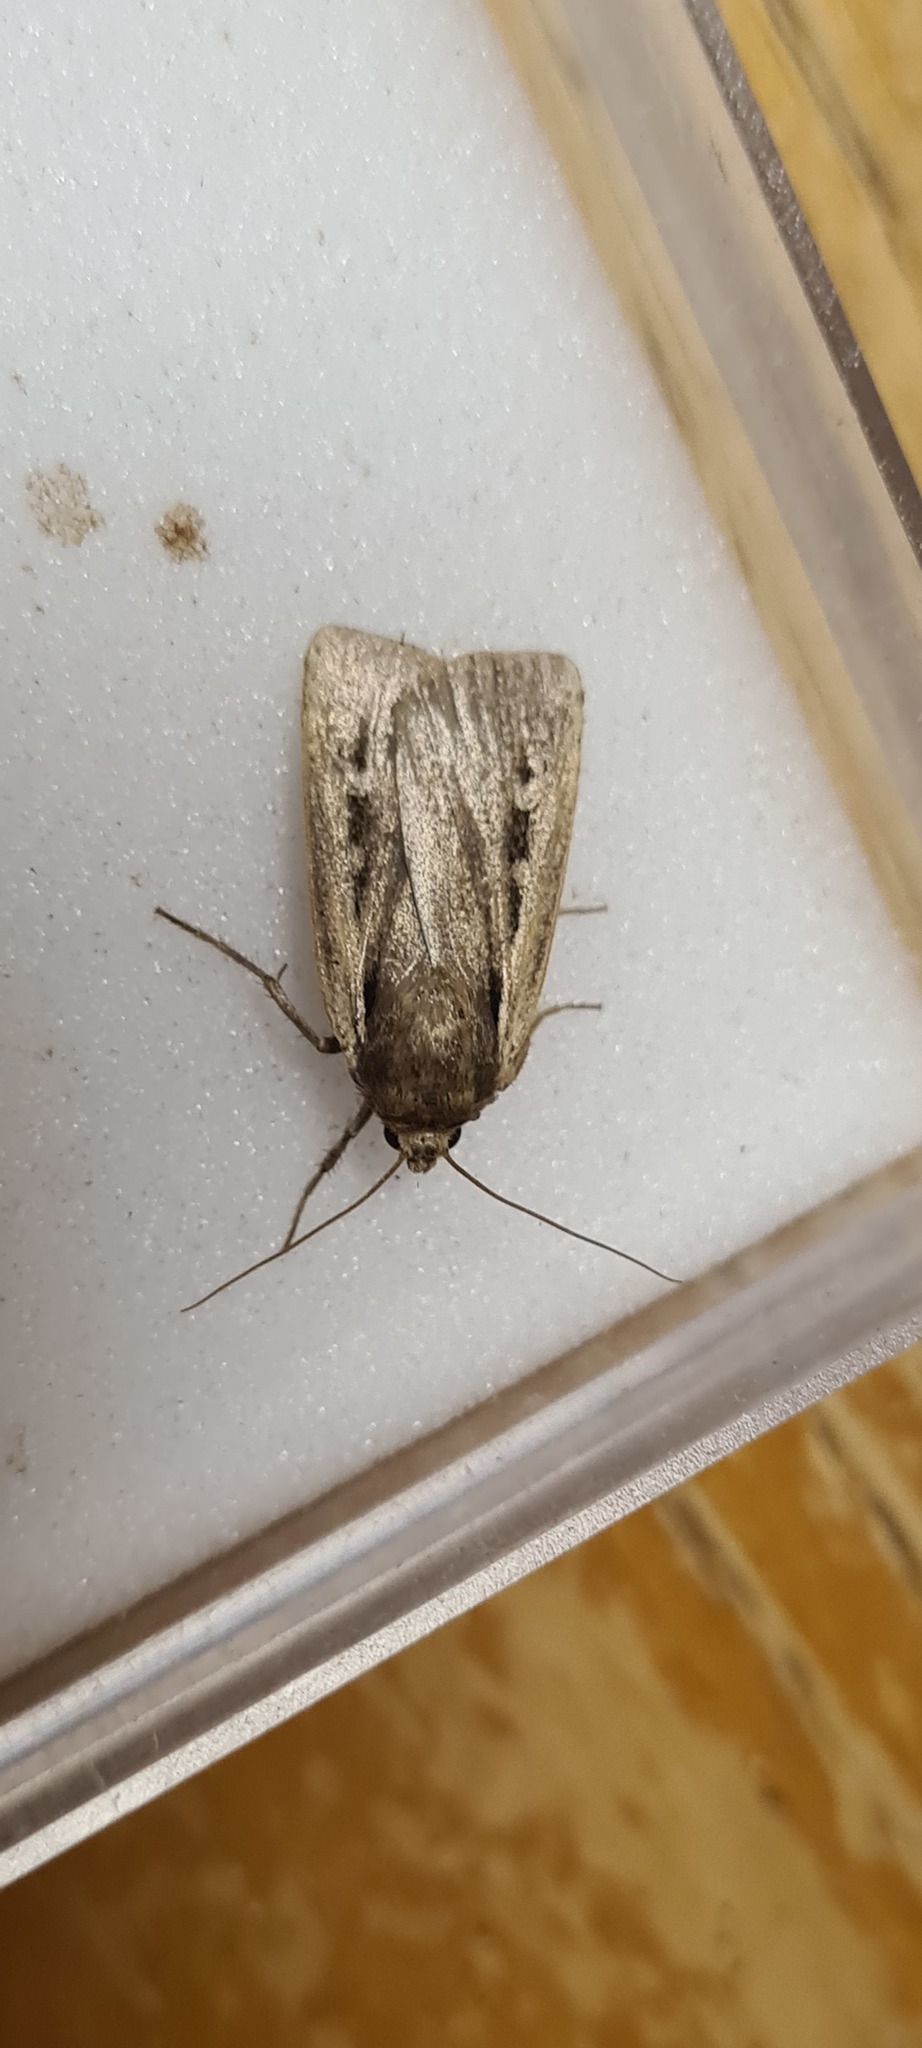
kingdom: Animalia
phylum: Arthropoda
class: Insecta
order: Lepidoptera
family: Noctuidae
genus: Ochropleura
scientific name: Ochropleura plecta
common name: Flame shoulder
